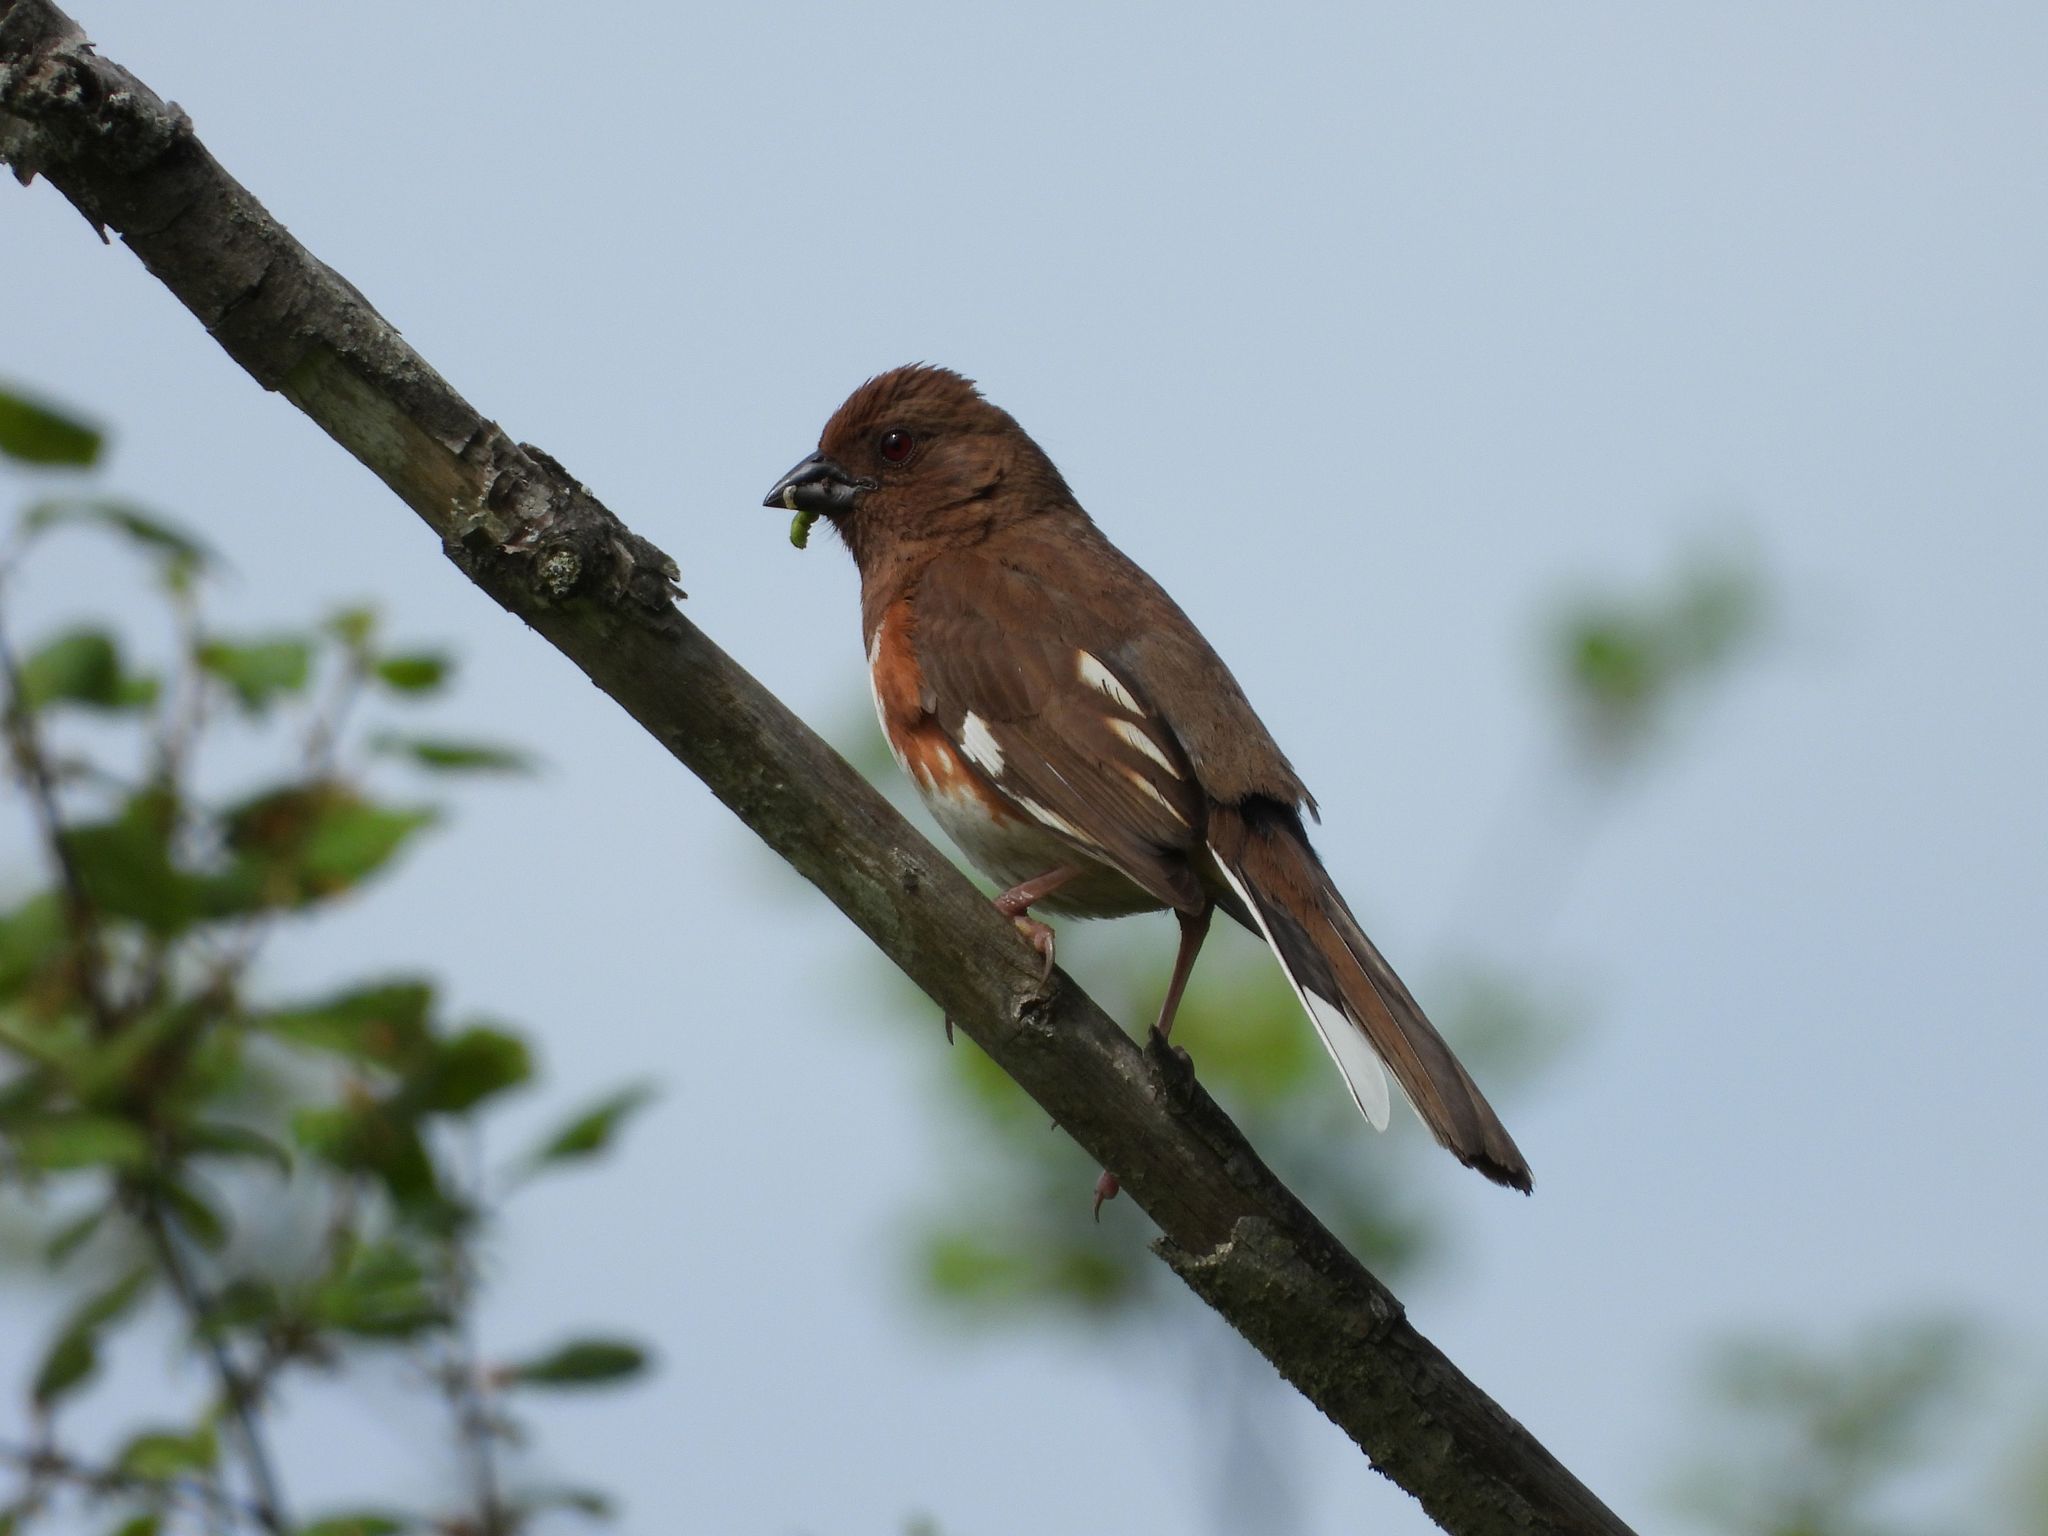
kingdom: Animalia
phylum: Chordata
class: Aves
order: Passeriformes
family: Passerellidae
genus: Pipilo
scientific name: Pipilo erythrophthalmus
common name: Eastern towhee
